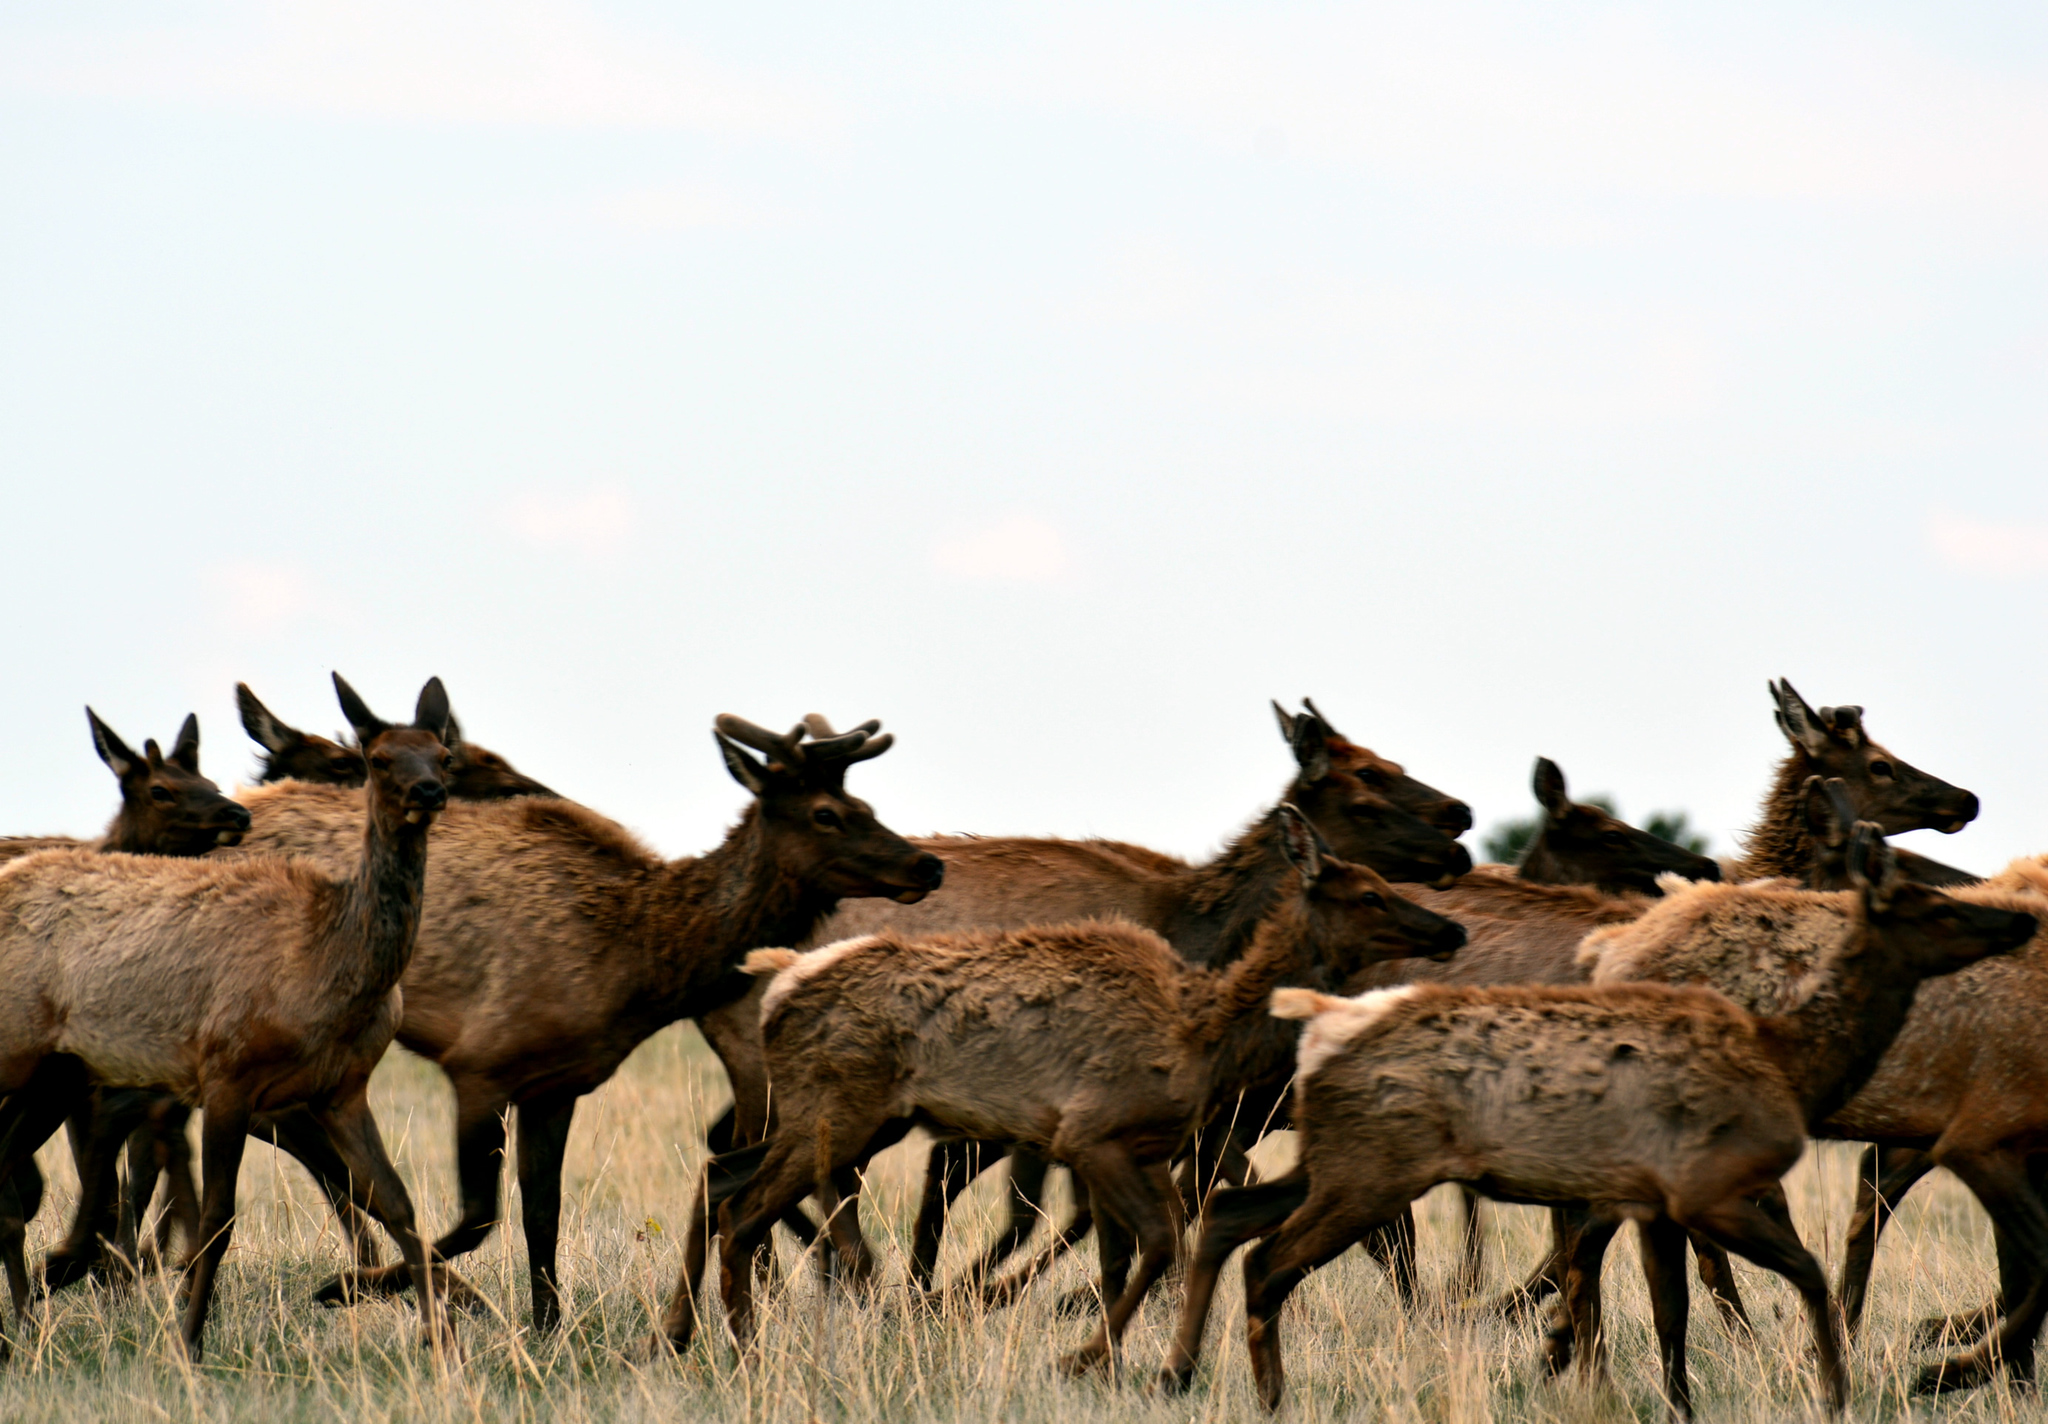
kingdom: Animalia
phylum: Chordata
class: Mammalia
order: Artiodactyla
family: Cervidae
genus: Cervus
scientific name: Cervus elaphus
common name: Red deer
